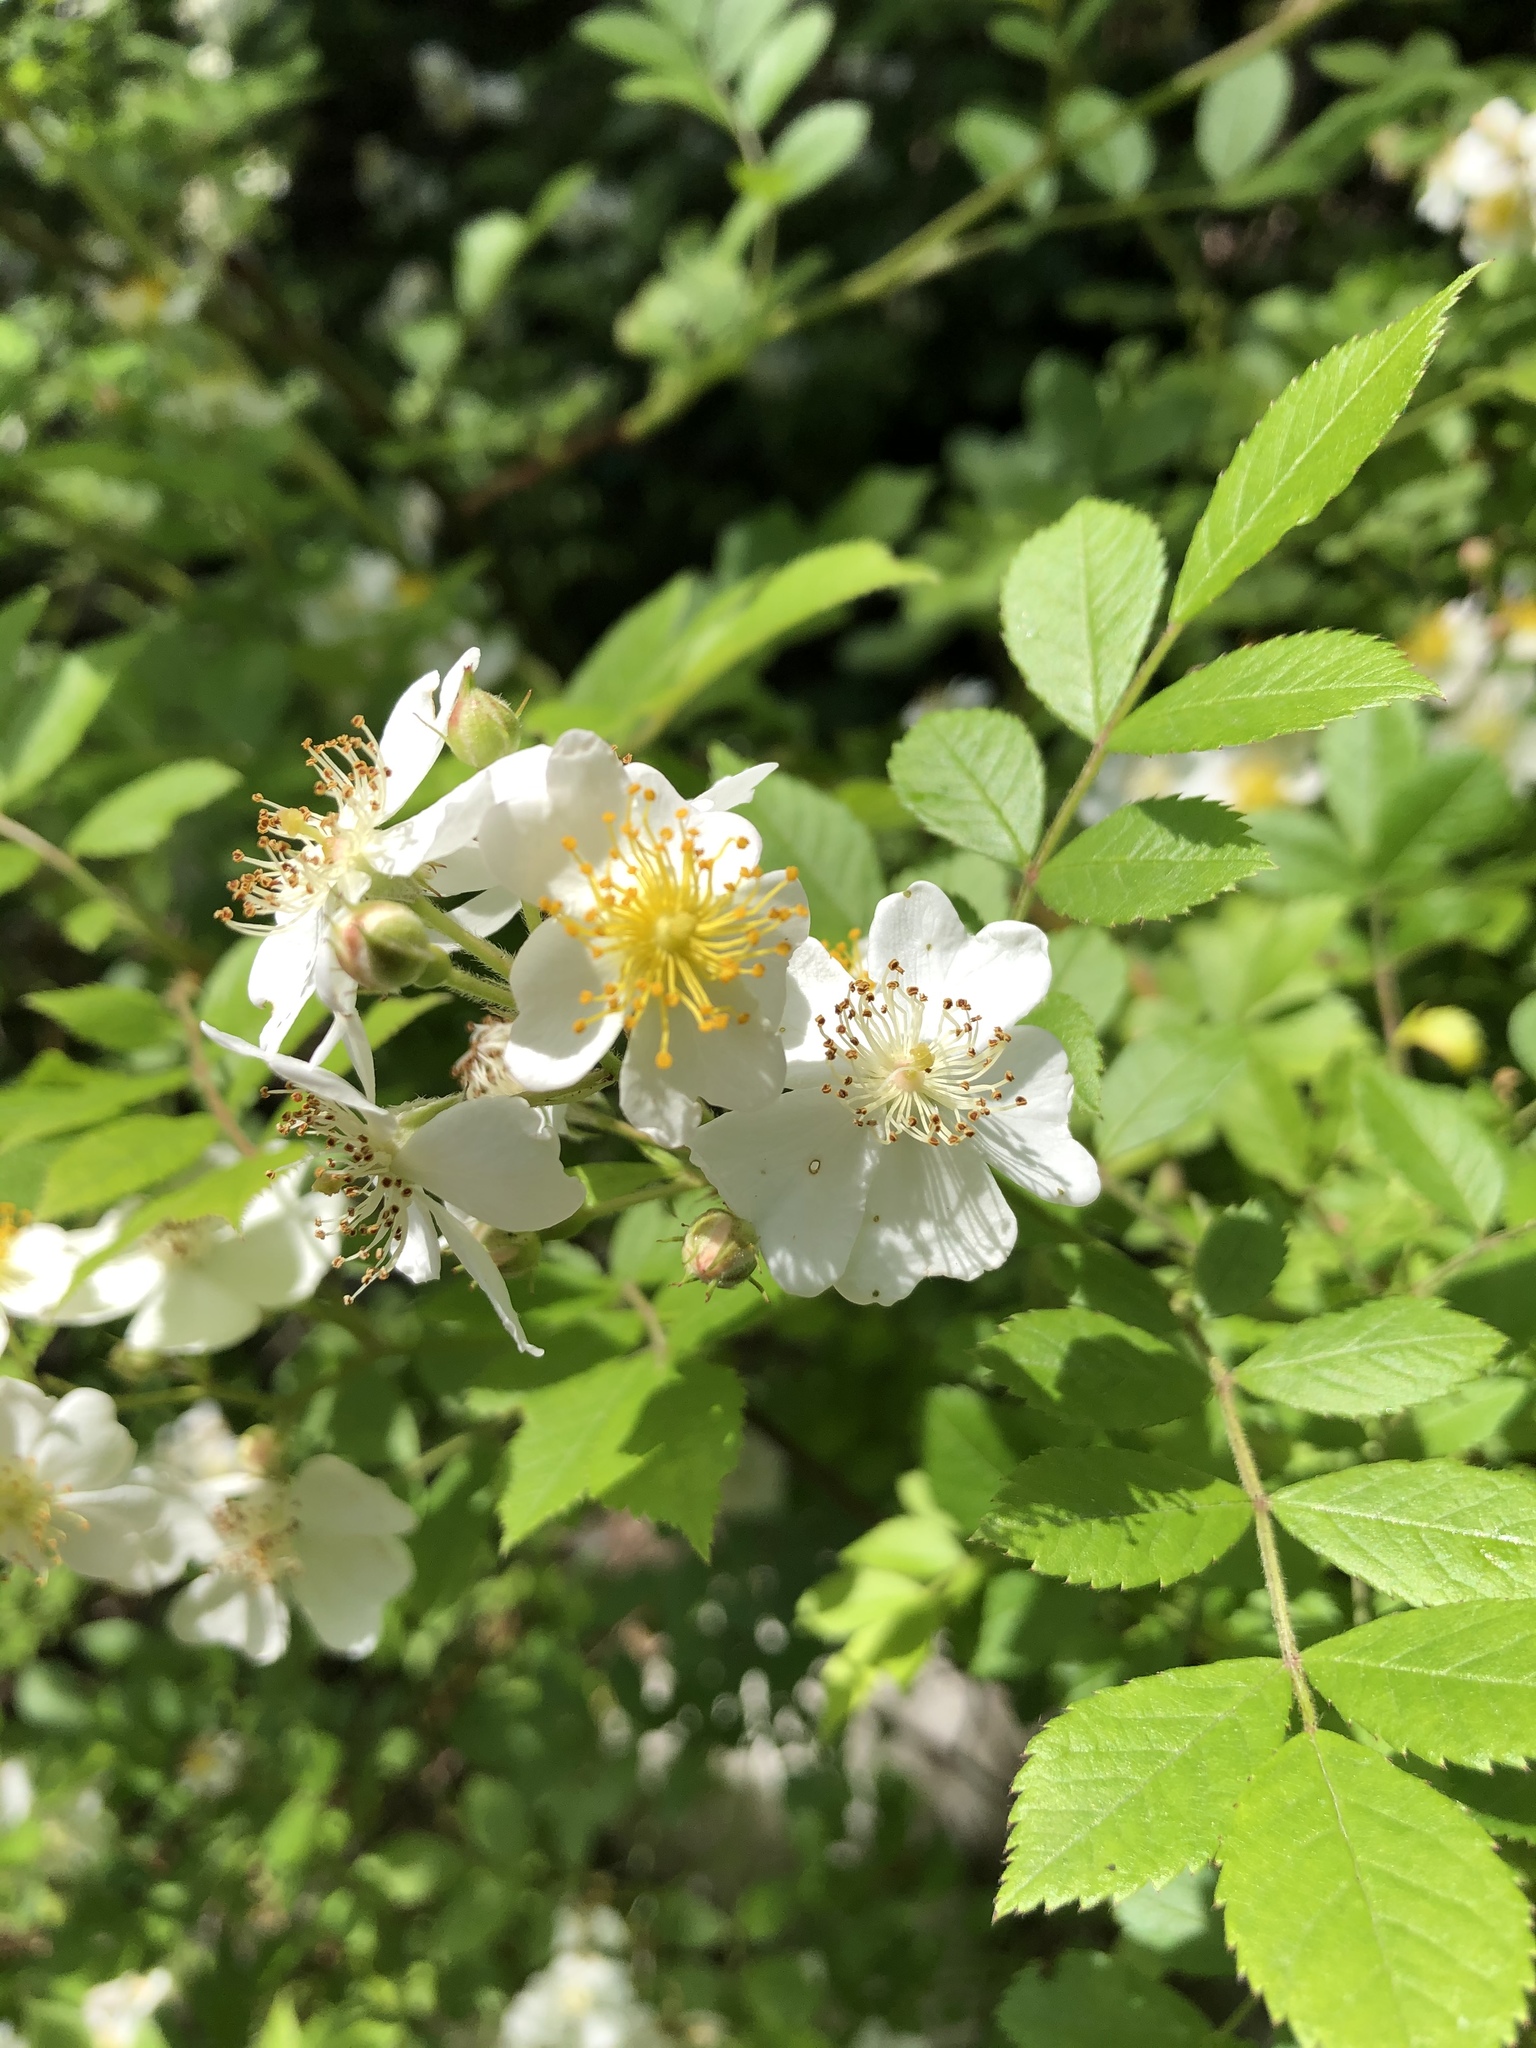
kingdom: Plantae
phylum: Tracheophyta
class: Magnoliopsida
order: Rosales
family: Rosaceae
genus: Rosa
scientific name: Rosa multiflora
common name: Multiflora rose
